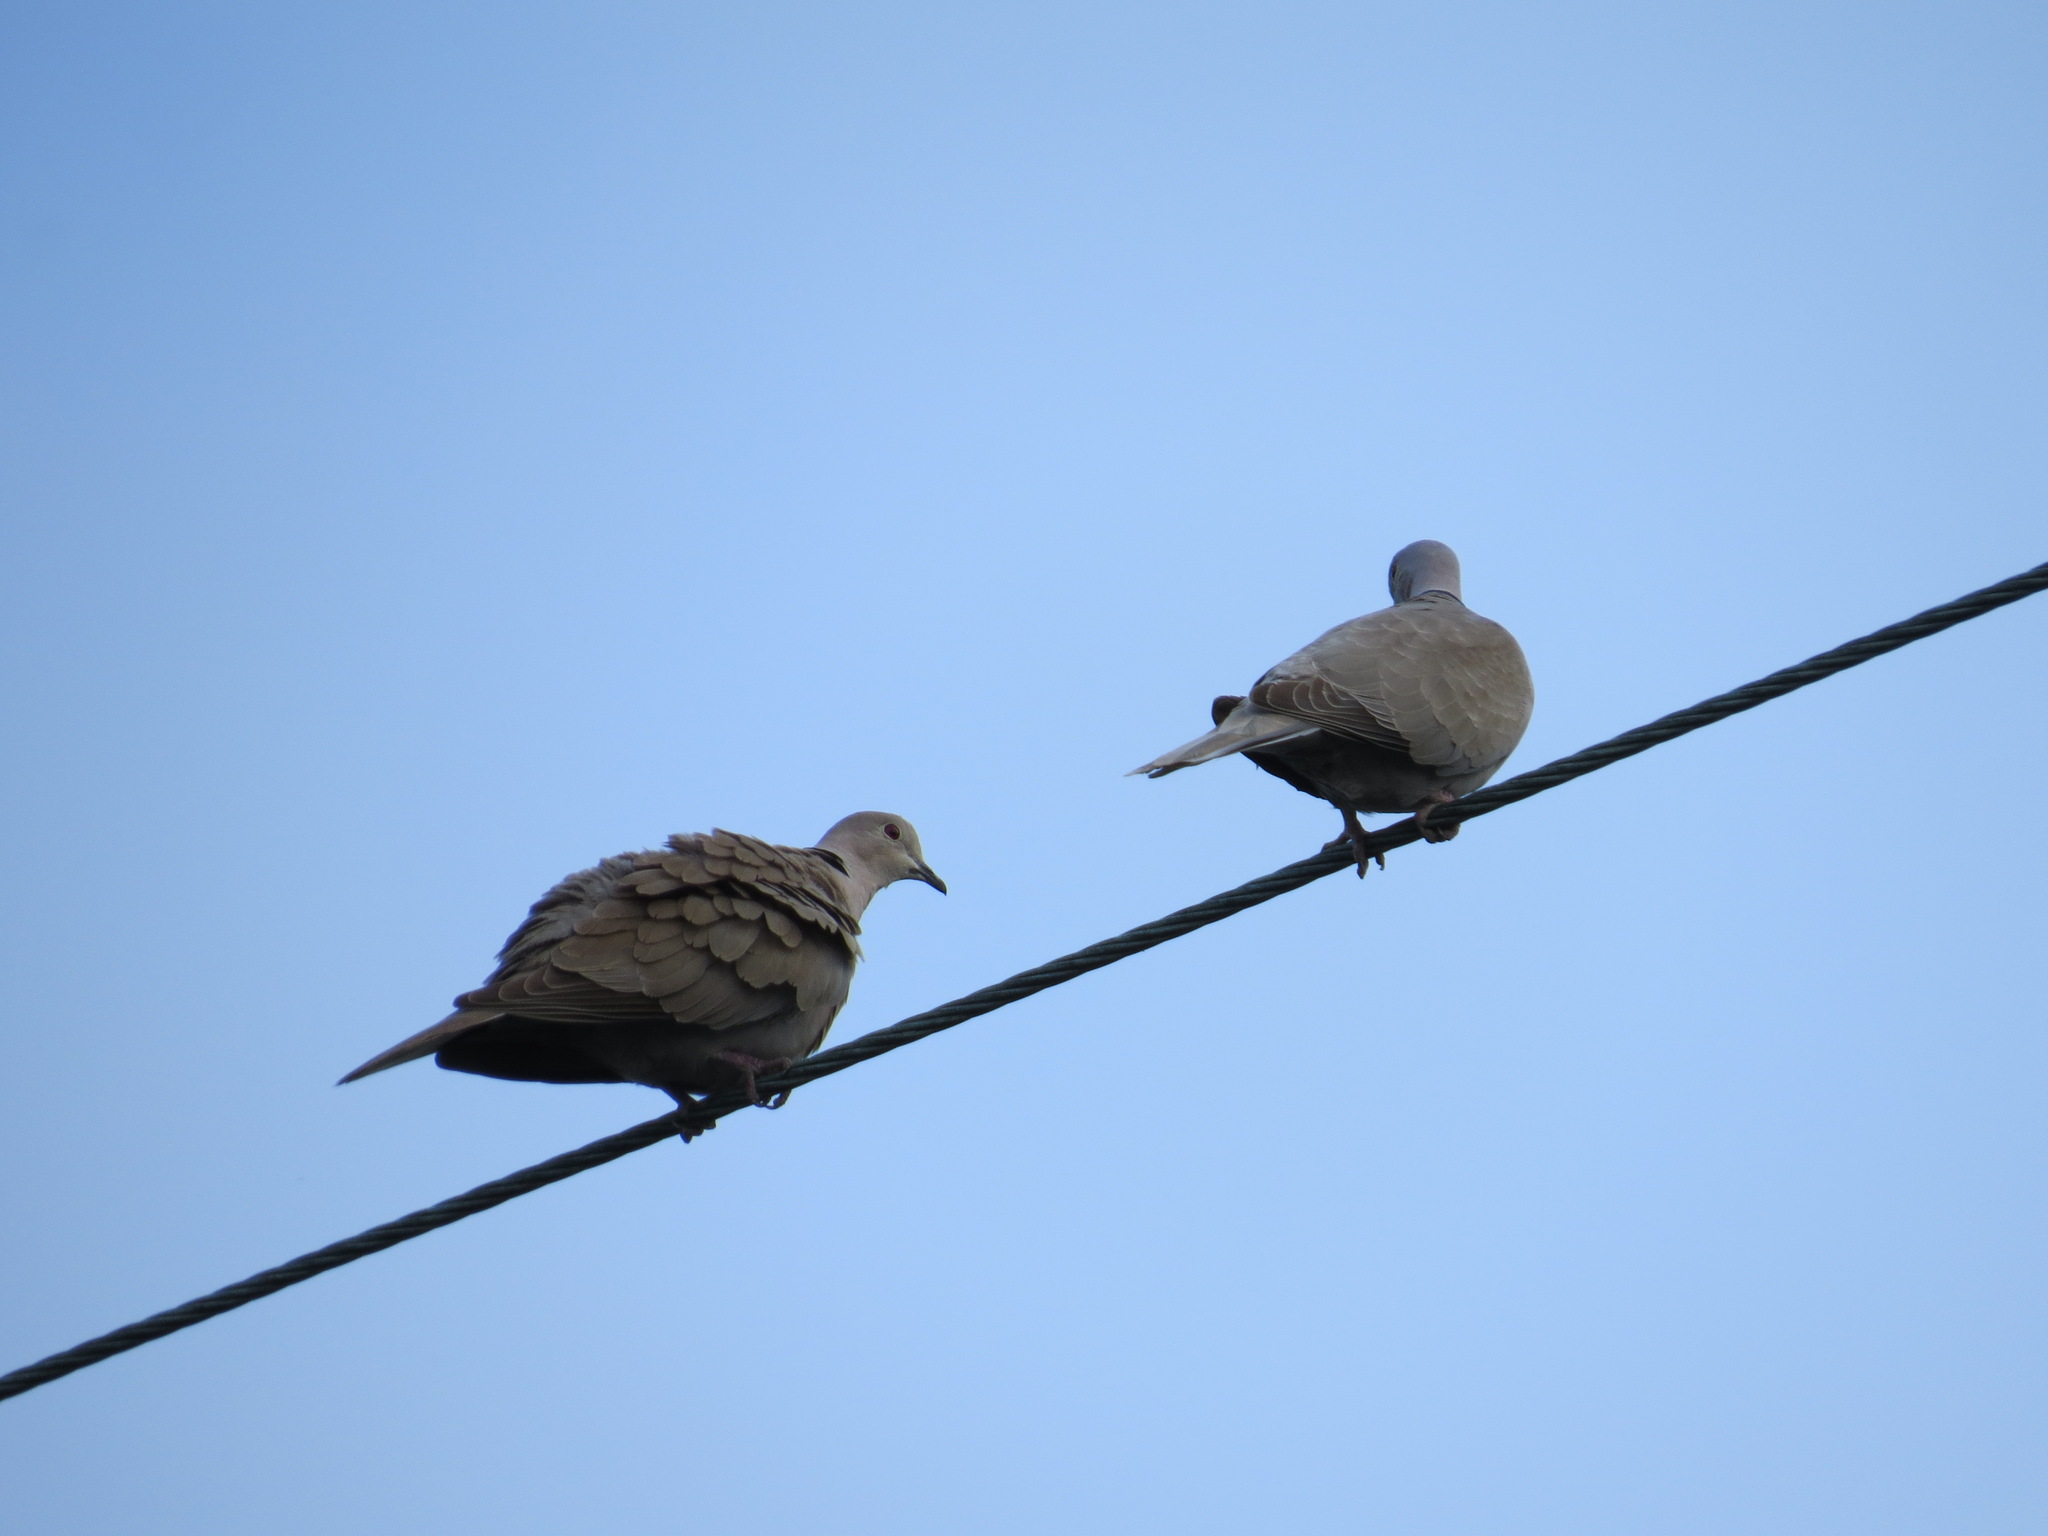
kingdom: Animalia
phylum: Chordata
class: Aves
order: Columbiformes
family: Columbidae
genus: Streptopelia
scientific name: Streptopelia decaocto
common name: Eurasian collared dove
